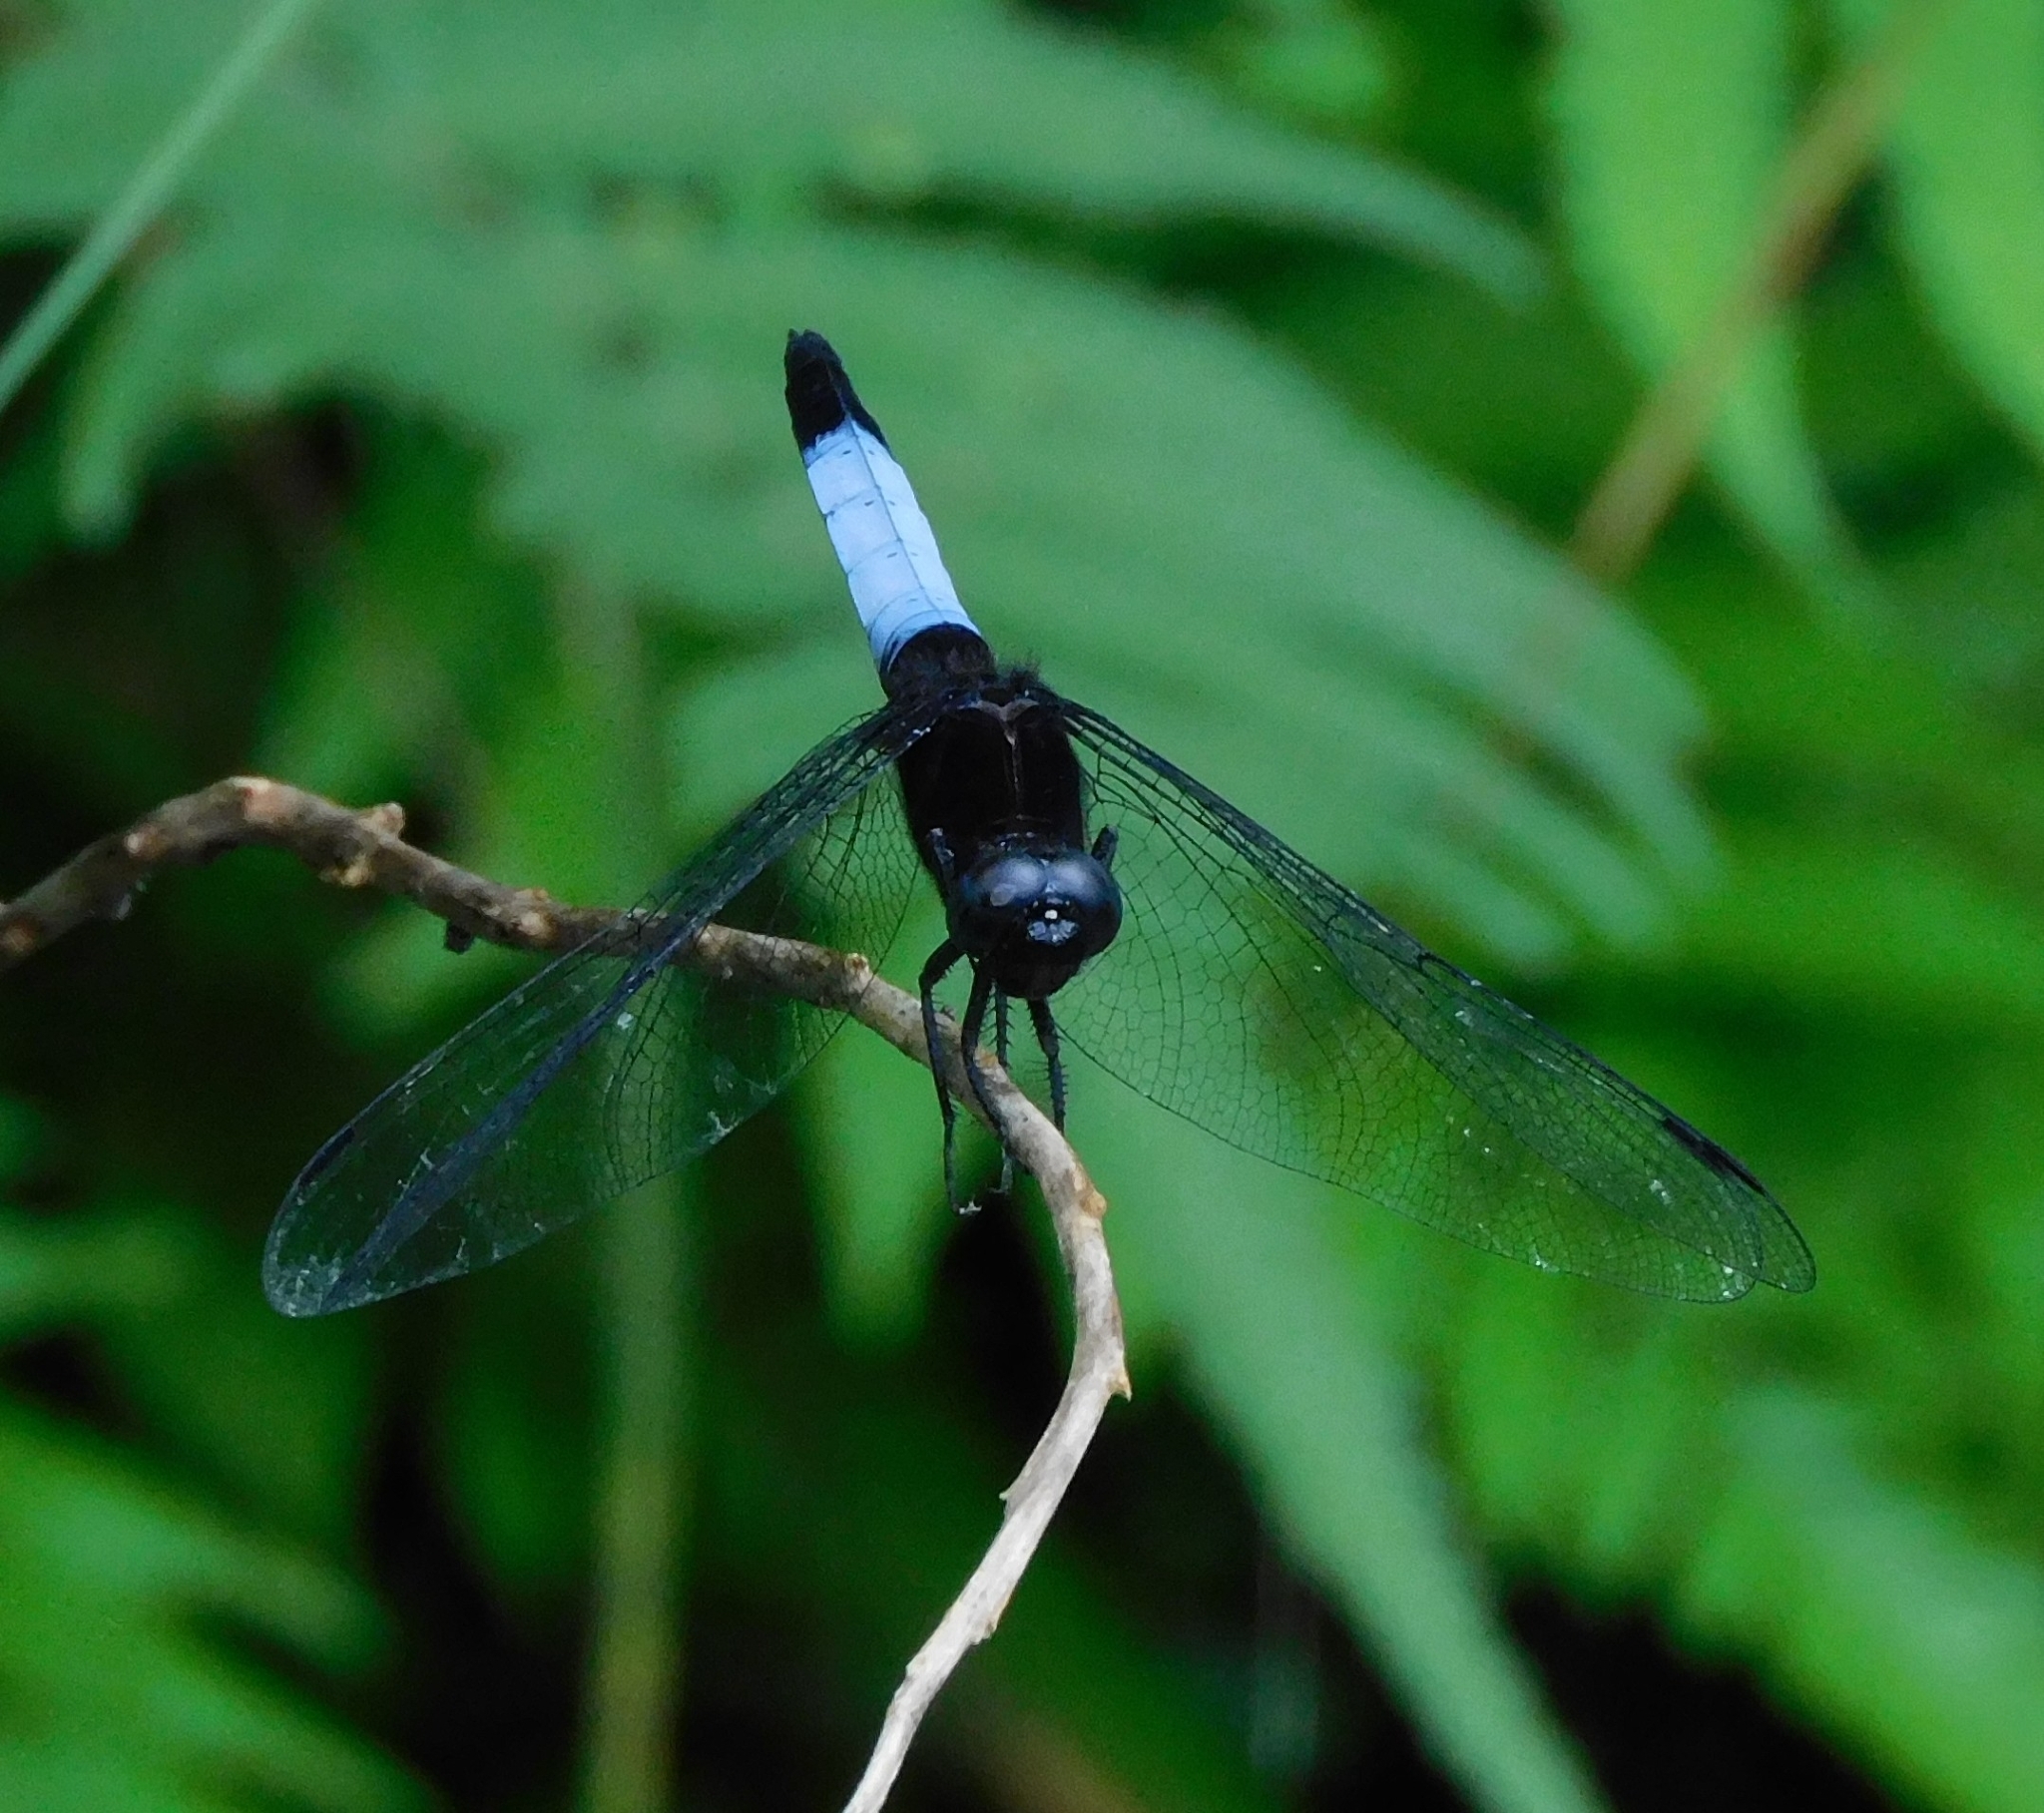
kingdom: Animalia
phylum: Arthropoda
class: Insecta
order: Odonata
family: Libellulidae
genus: Orthetrum
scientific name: Orthetrum triangulare
